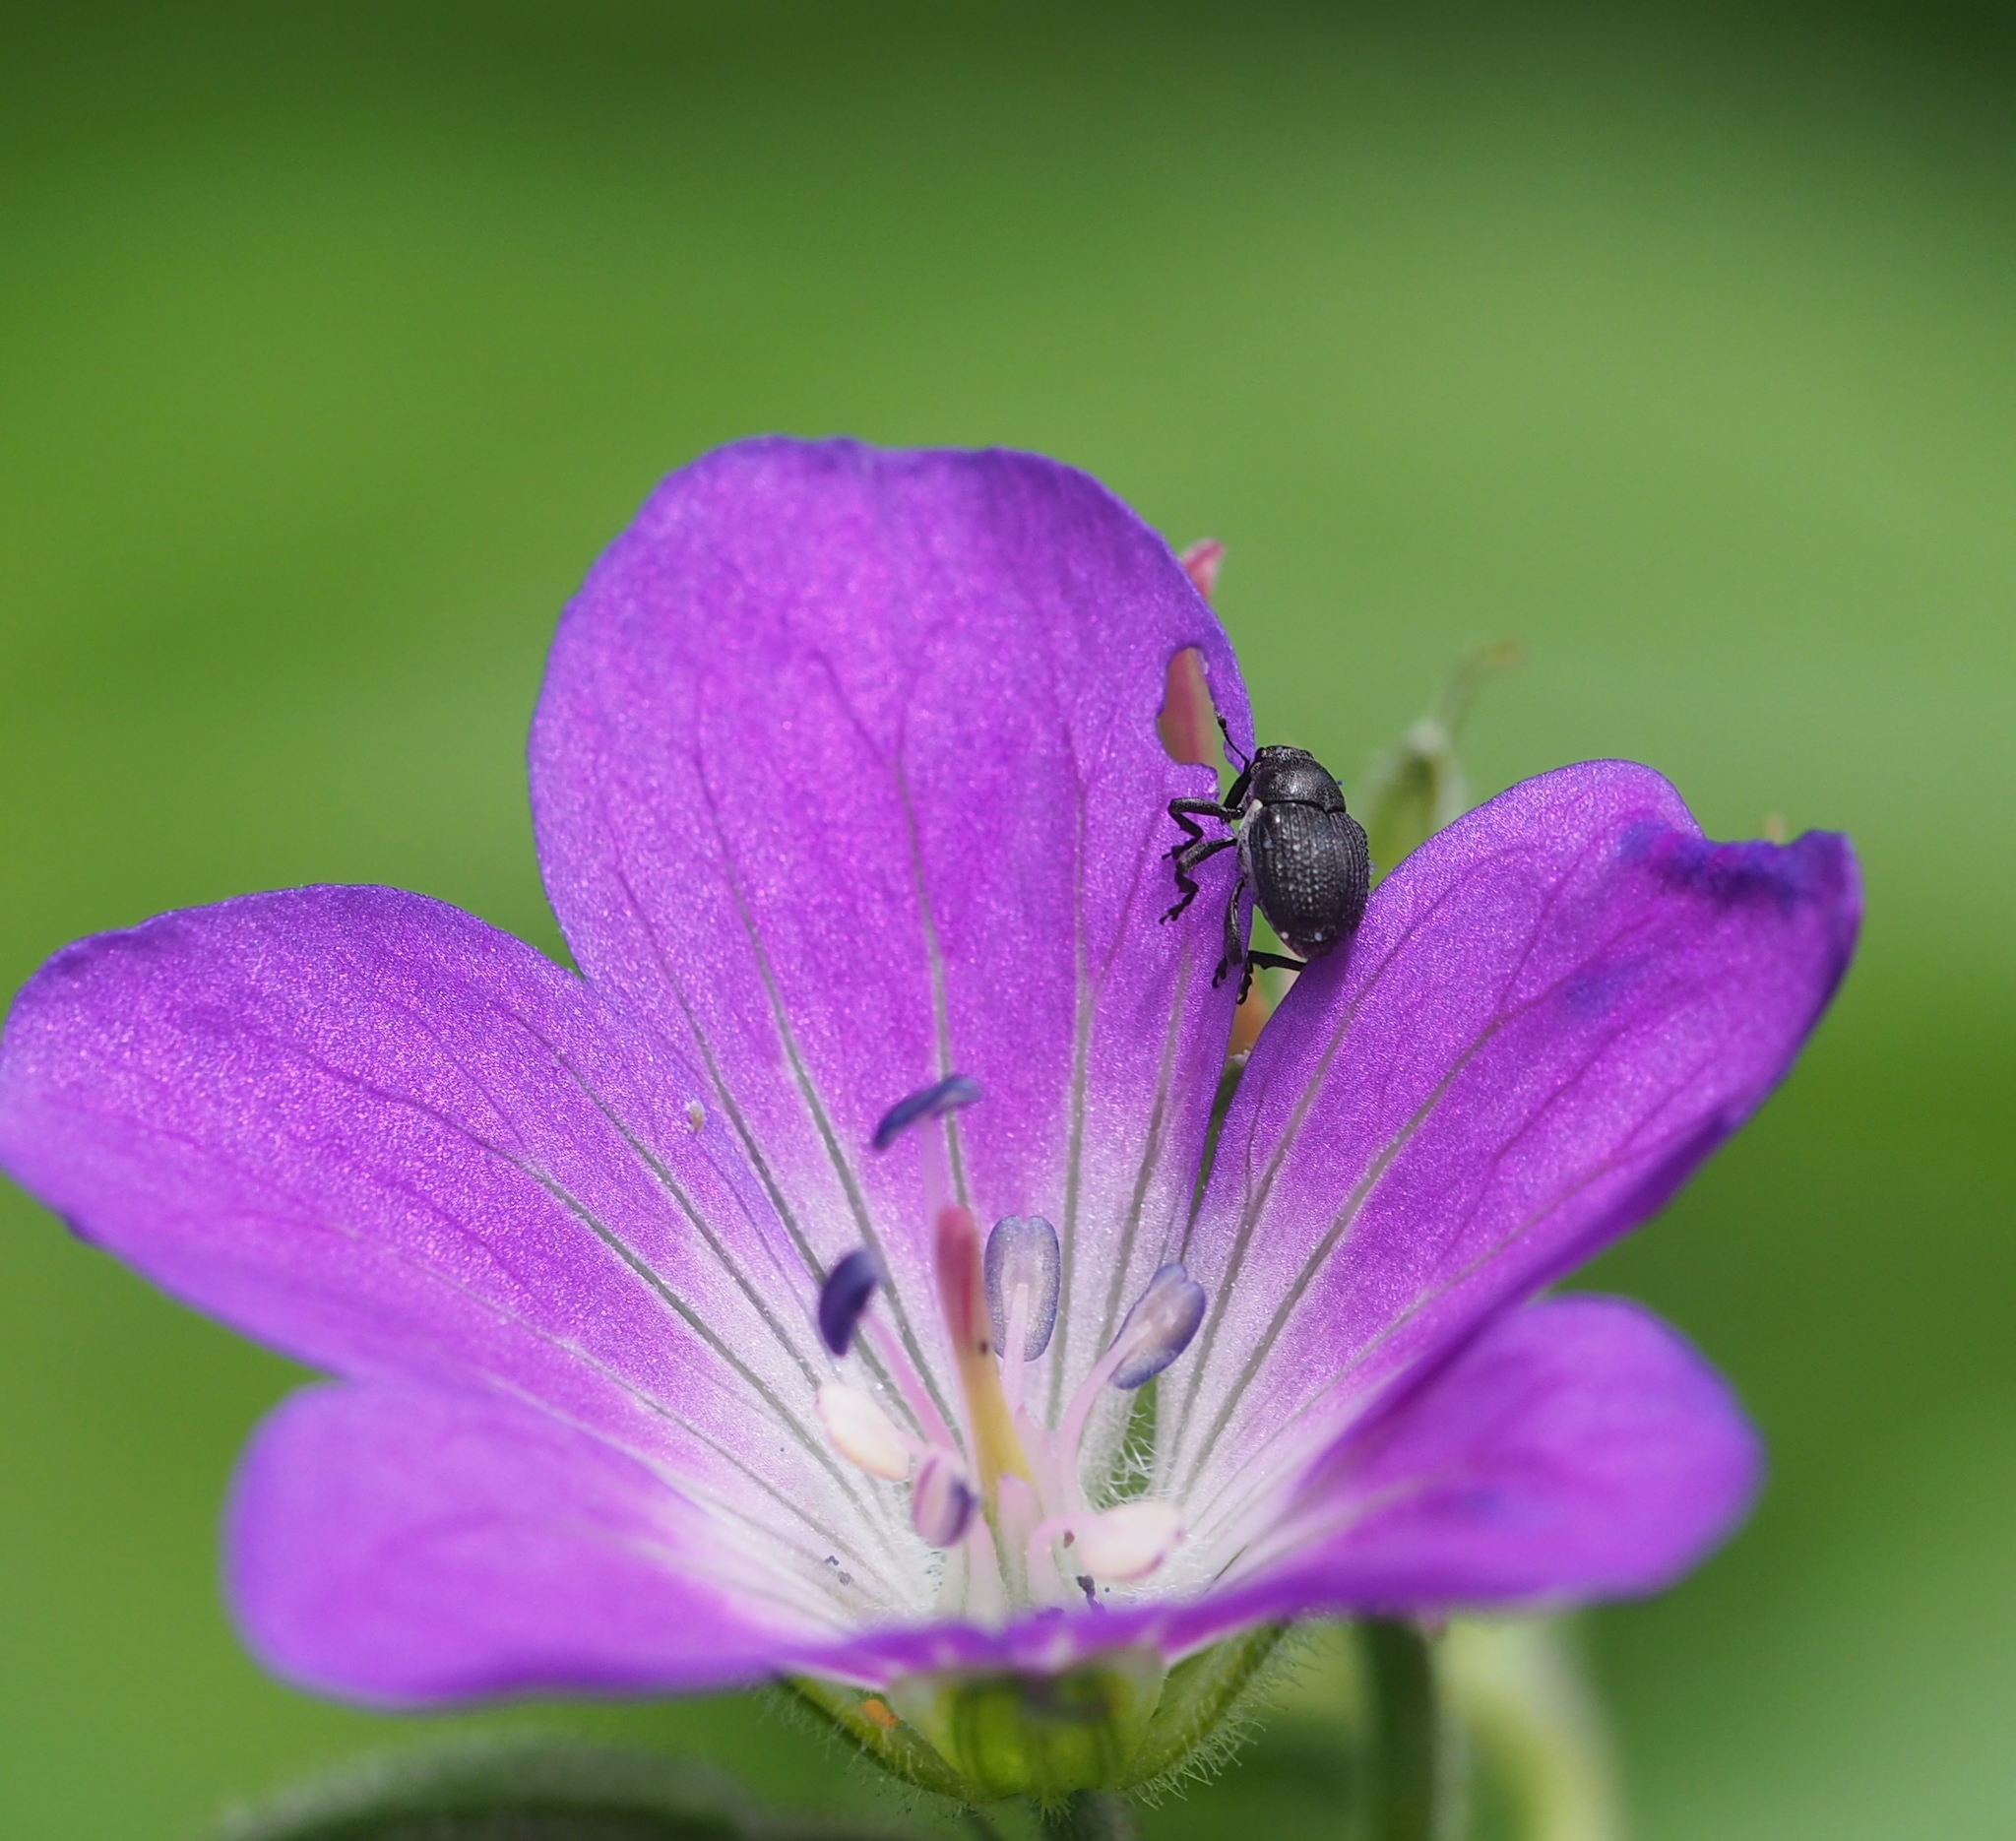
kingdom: Animalia
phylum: Arthropoda
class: Insecta
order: Coleoptera
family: Curculionidae
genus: Zacladus
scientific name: Zacladus geranii
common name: Meadow cranesbill weevil
